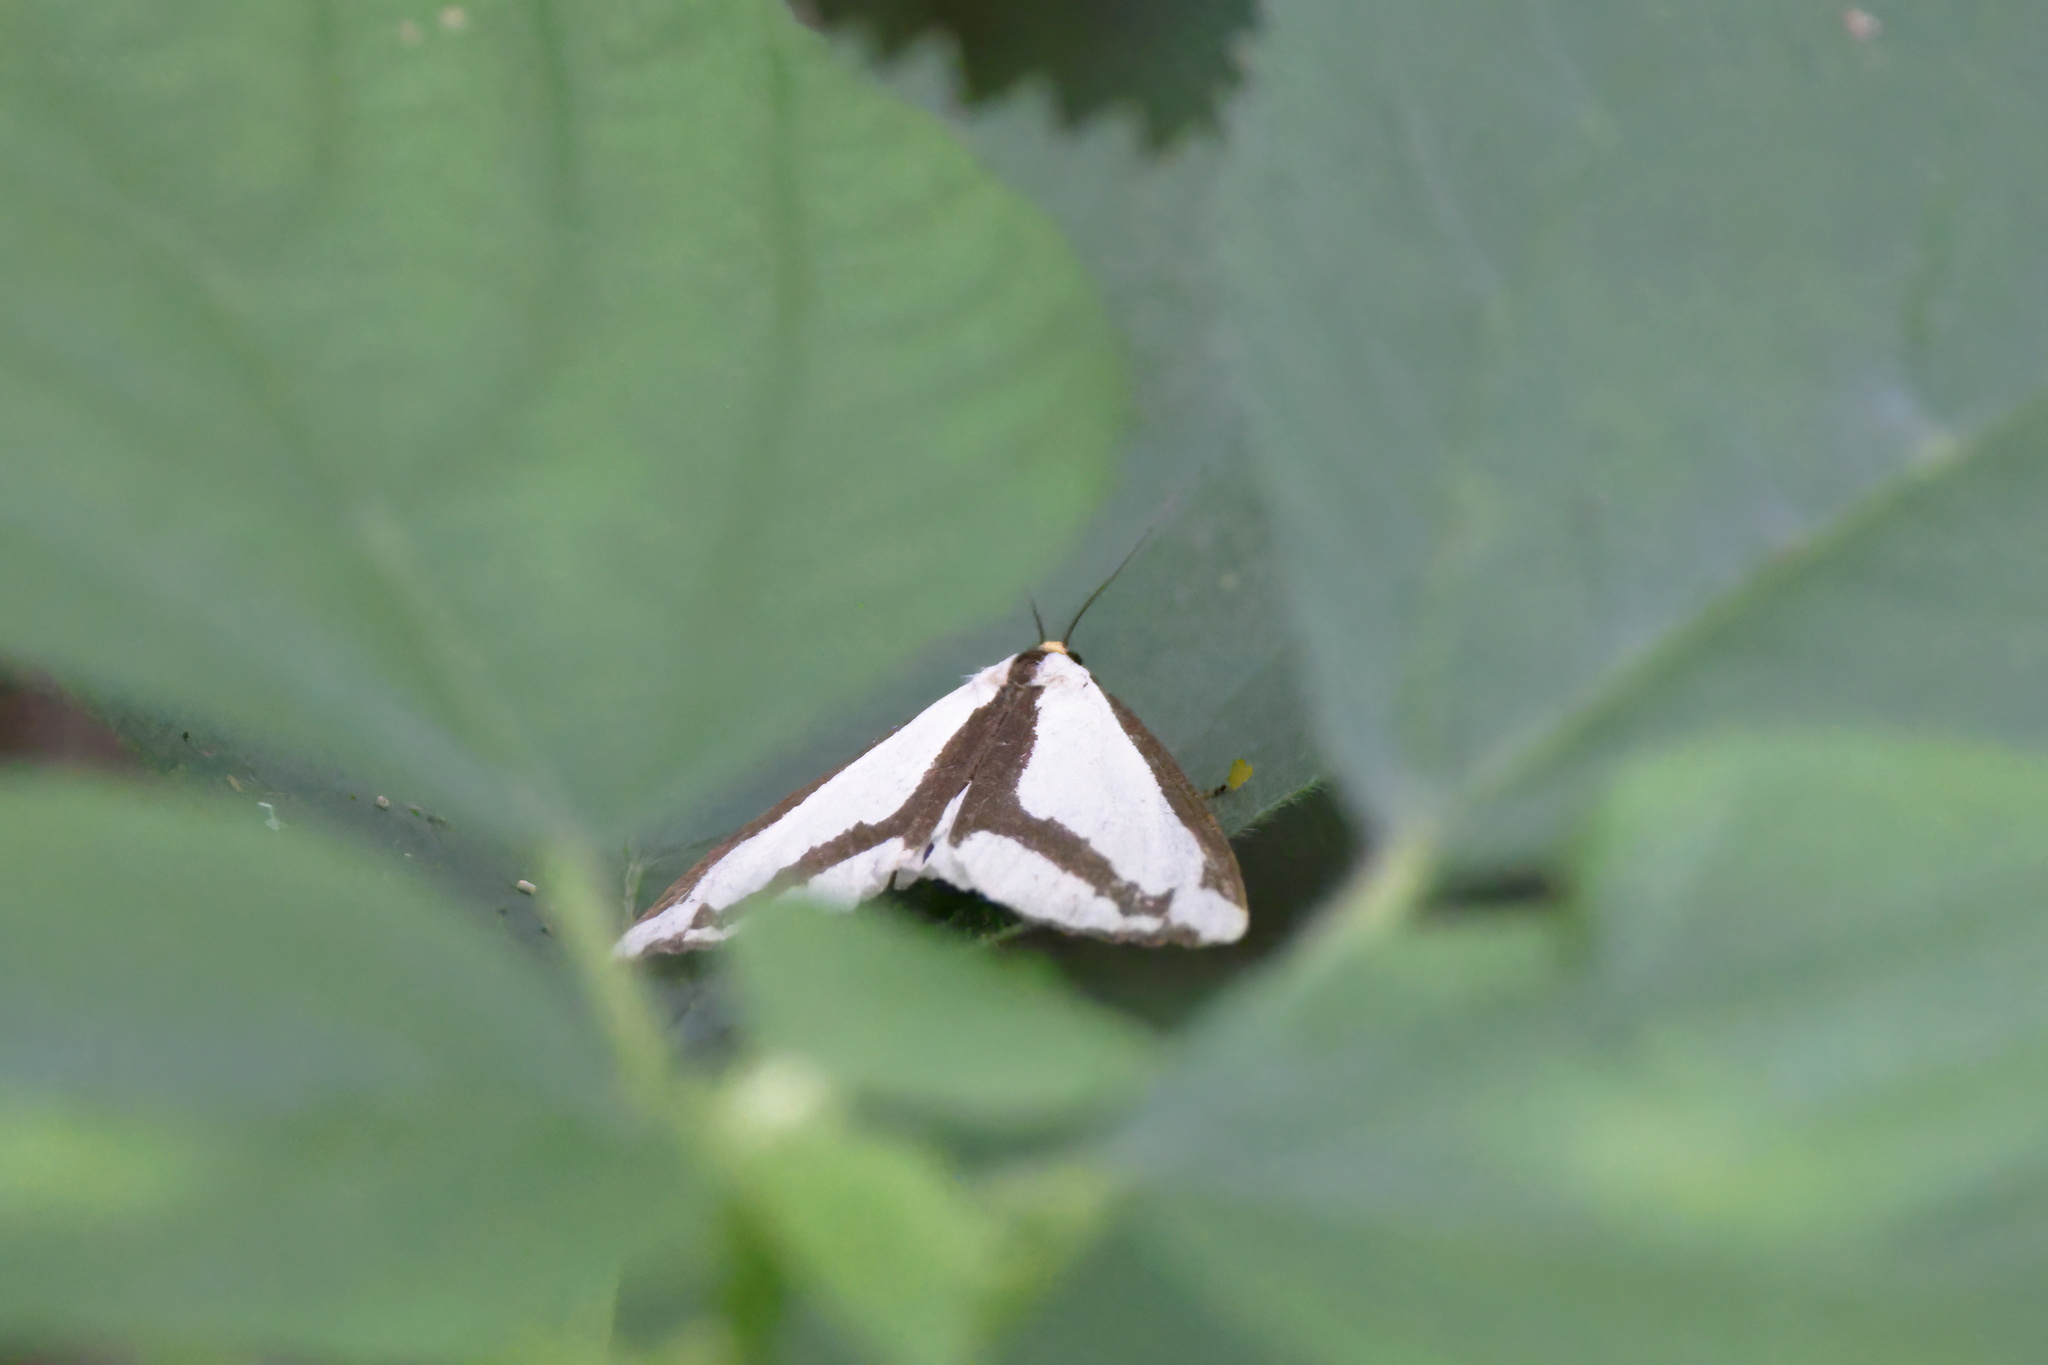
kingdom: Animalia
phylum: Arthropoda
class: Insecta
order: Lepidoptera
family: Erebidae
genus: Haploa
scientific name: Haploa lecontei
